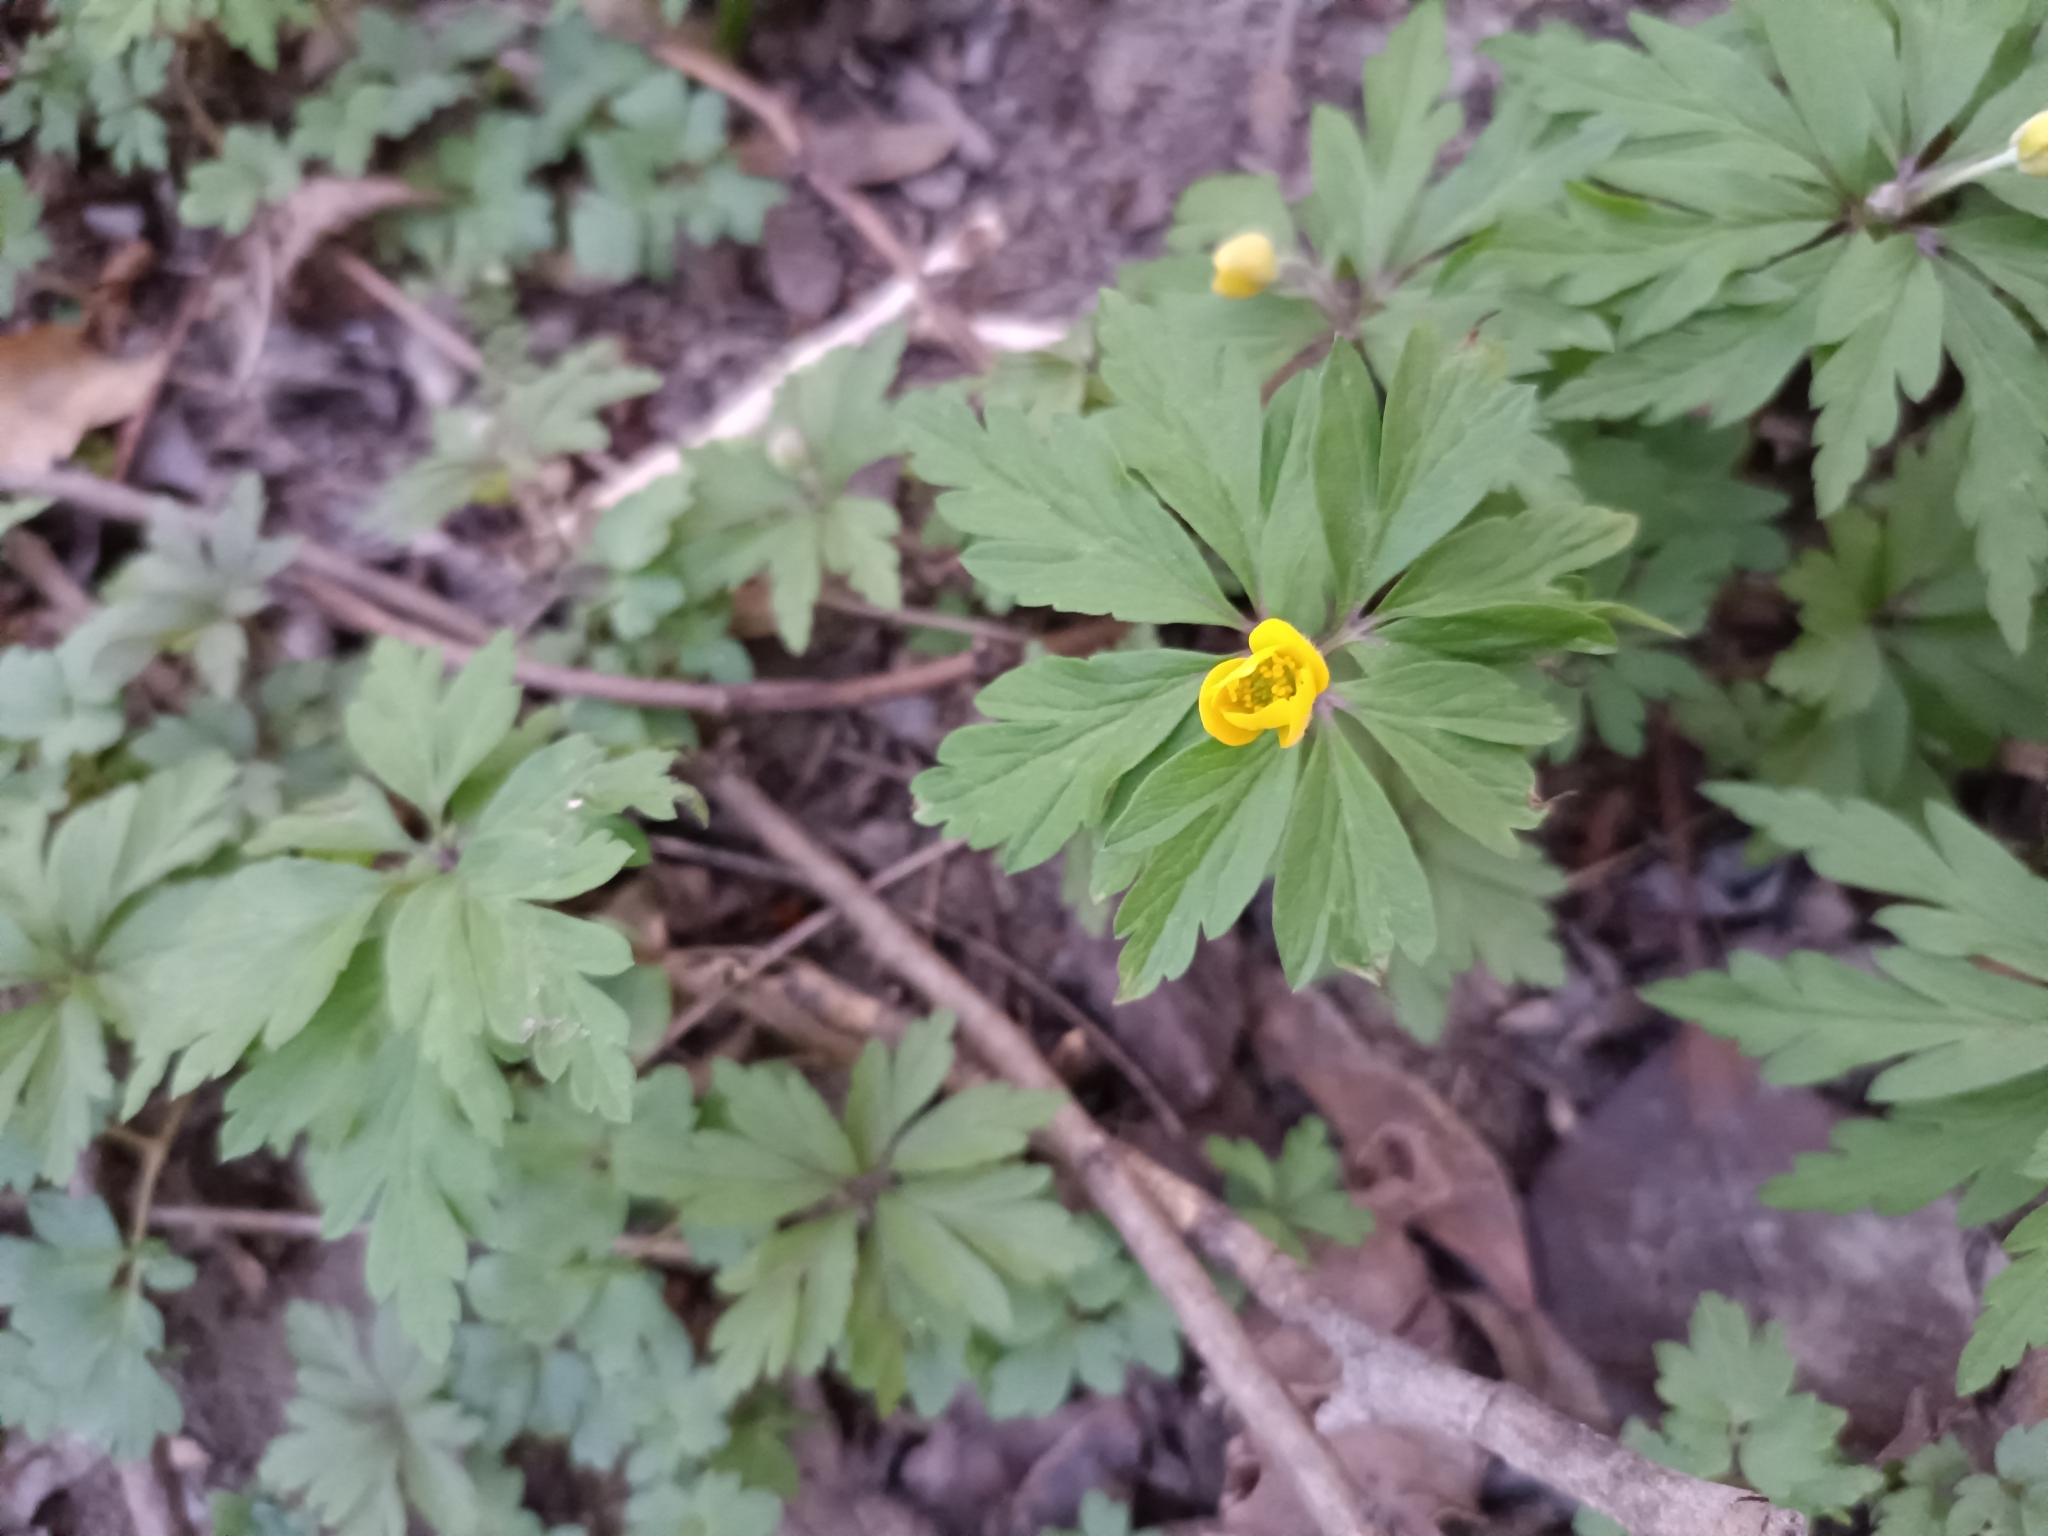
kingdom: Plantae
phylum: Tracheophyta
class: Magnoliopsida
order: Ranunculales
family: Ranunculaceae
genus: Anemone
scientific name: Anemone ranunculoides
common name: Yellow anemone
